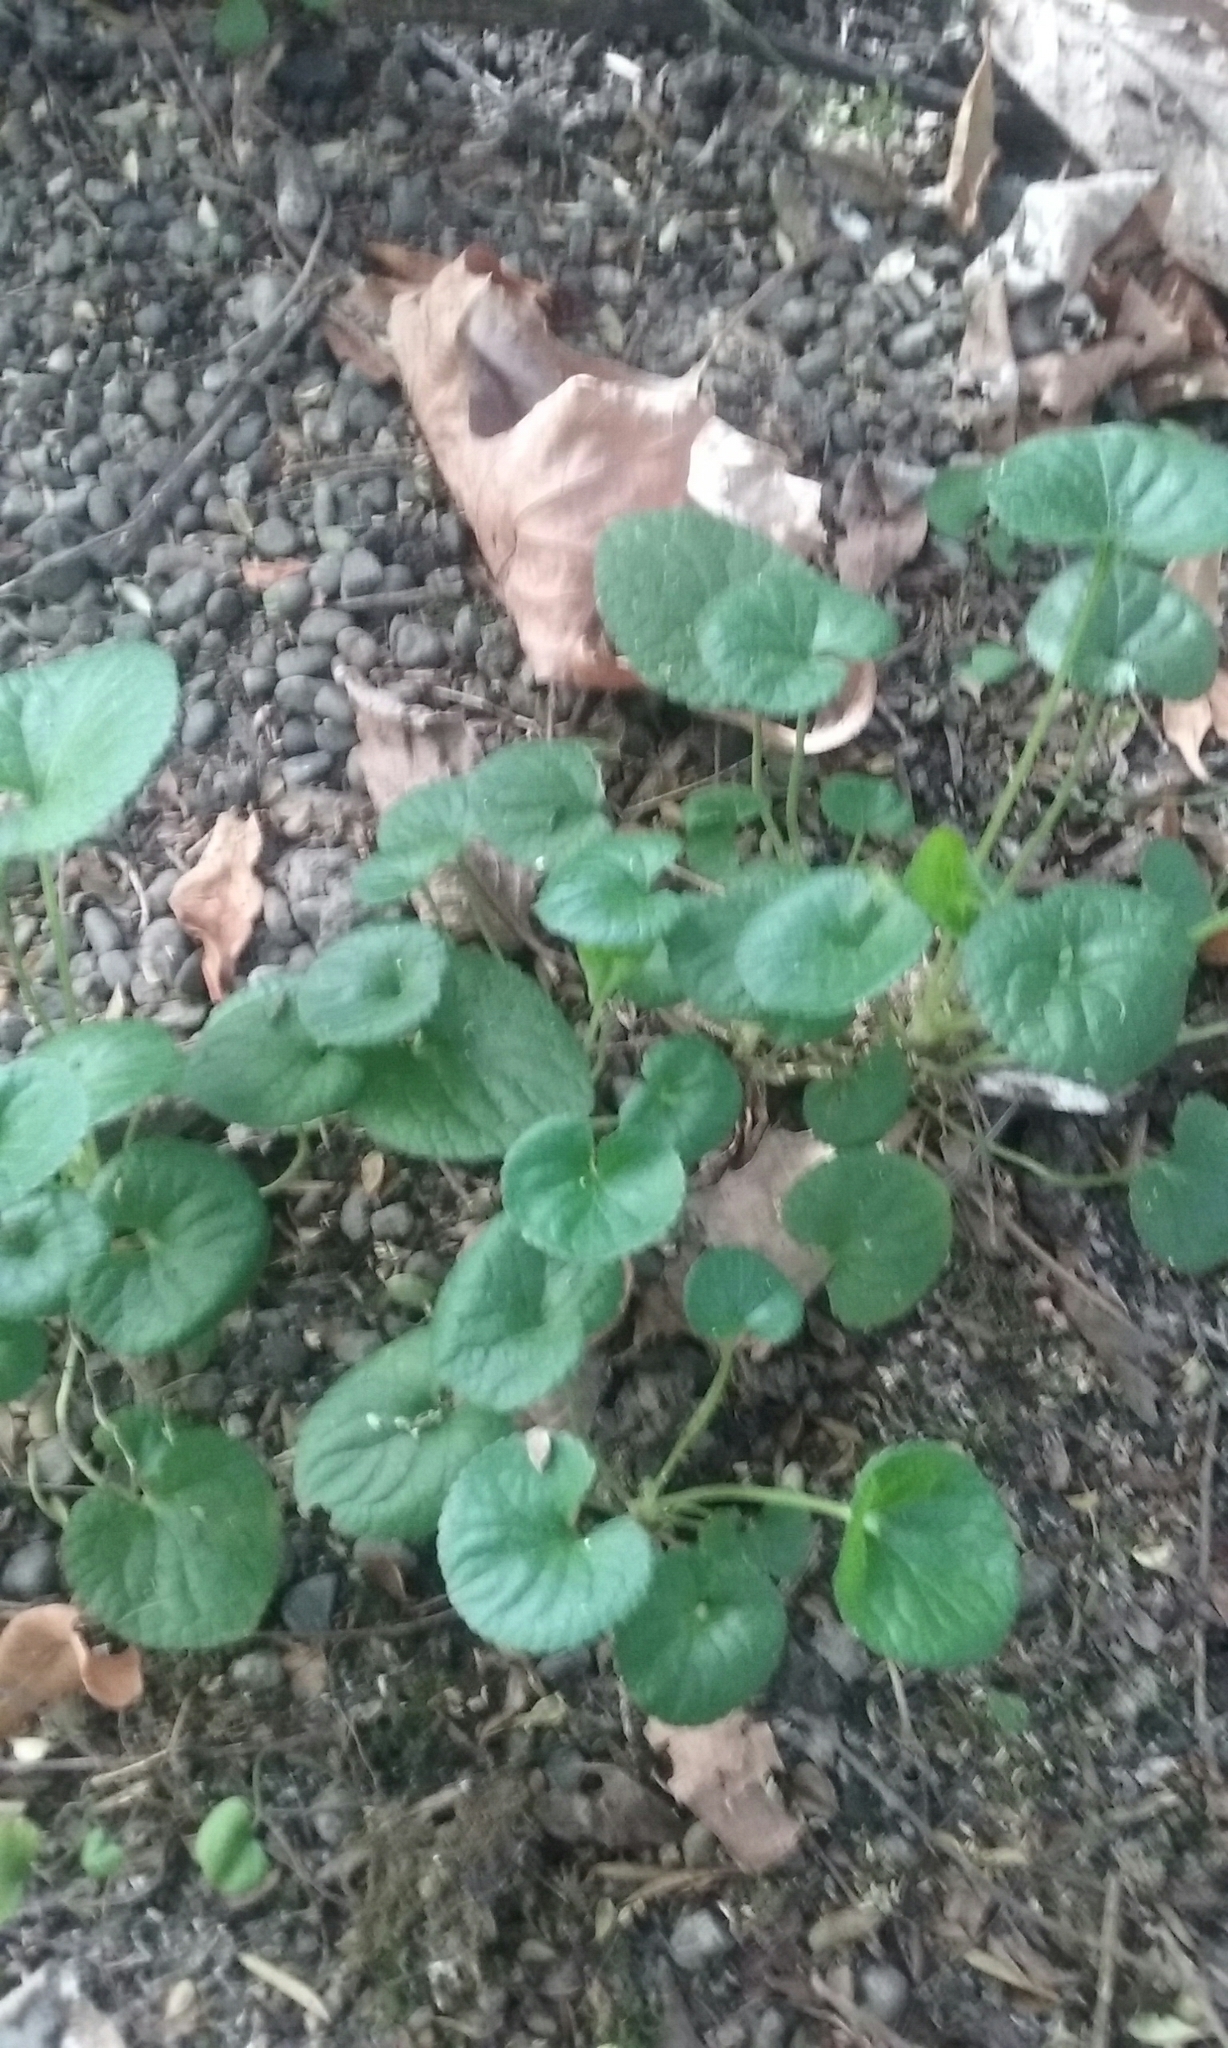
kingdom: Plantae
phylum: Tracheophyta
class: Magnoliopsida
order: Malpighiales
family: Violaceae
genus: Viola
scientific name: Viola odorata
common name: Sweet violet
